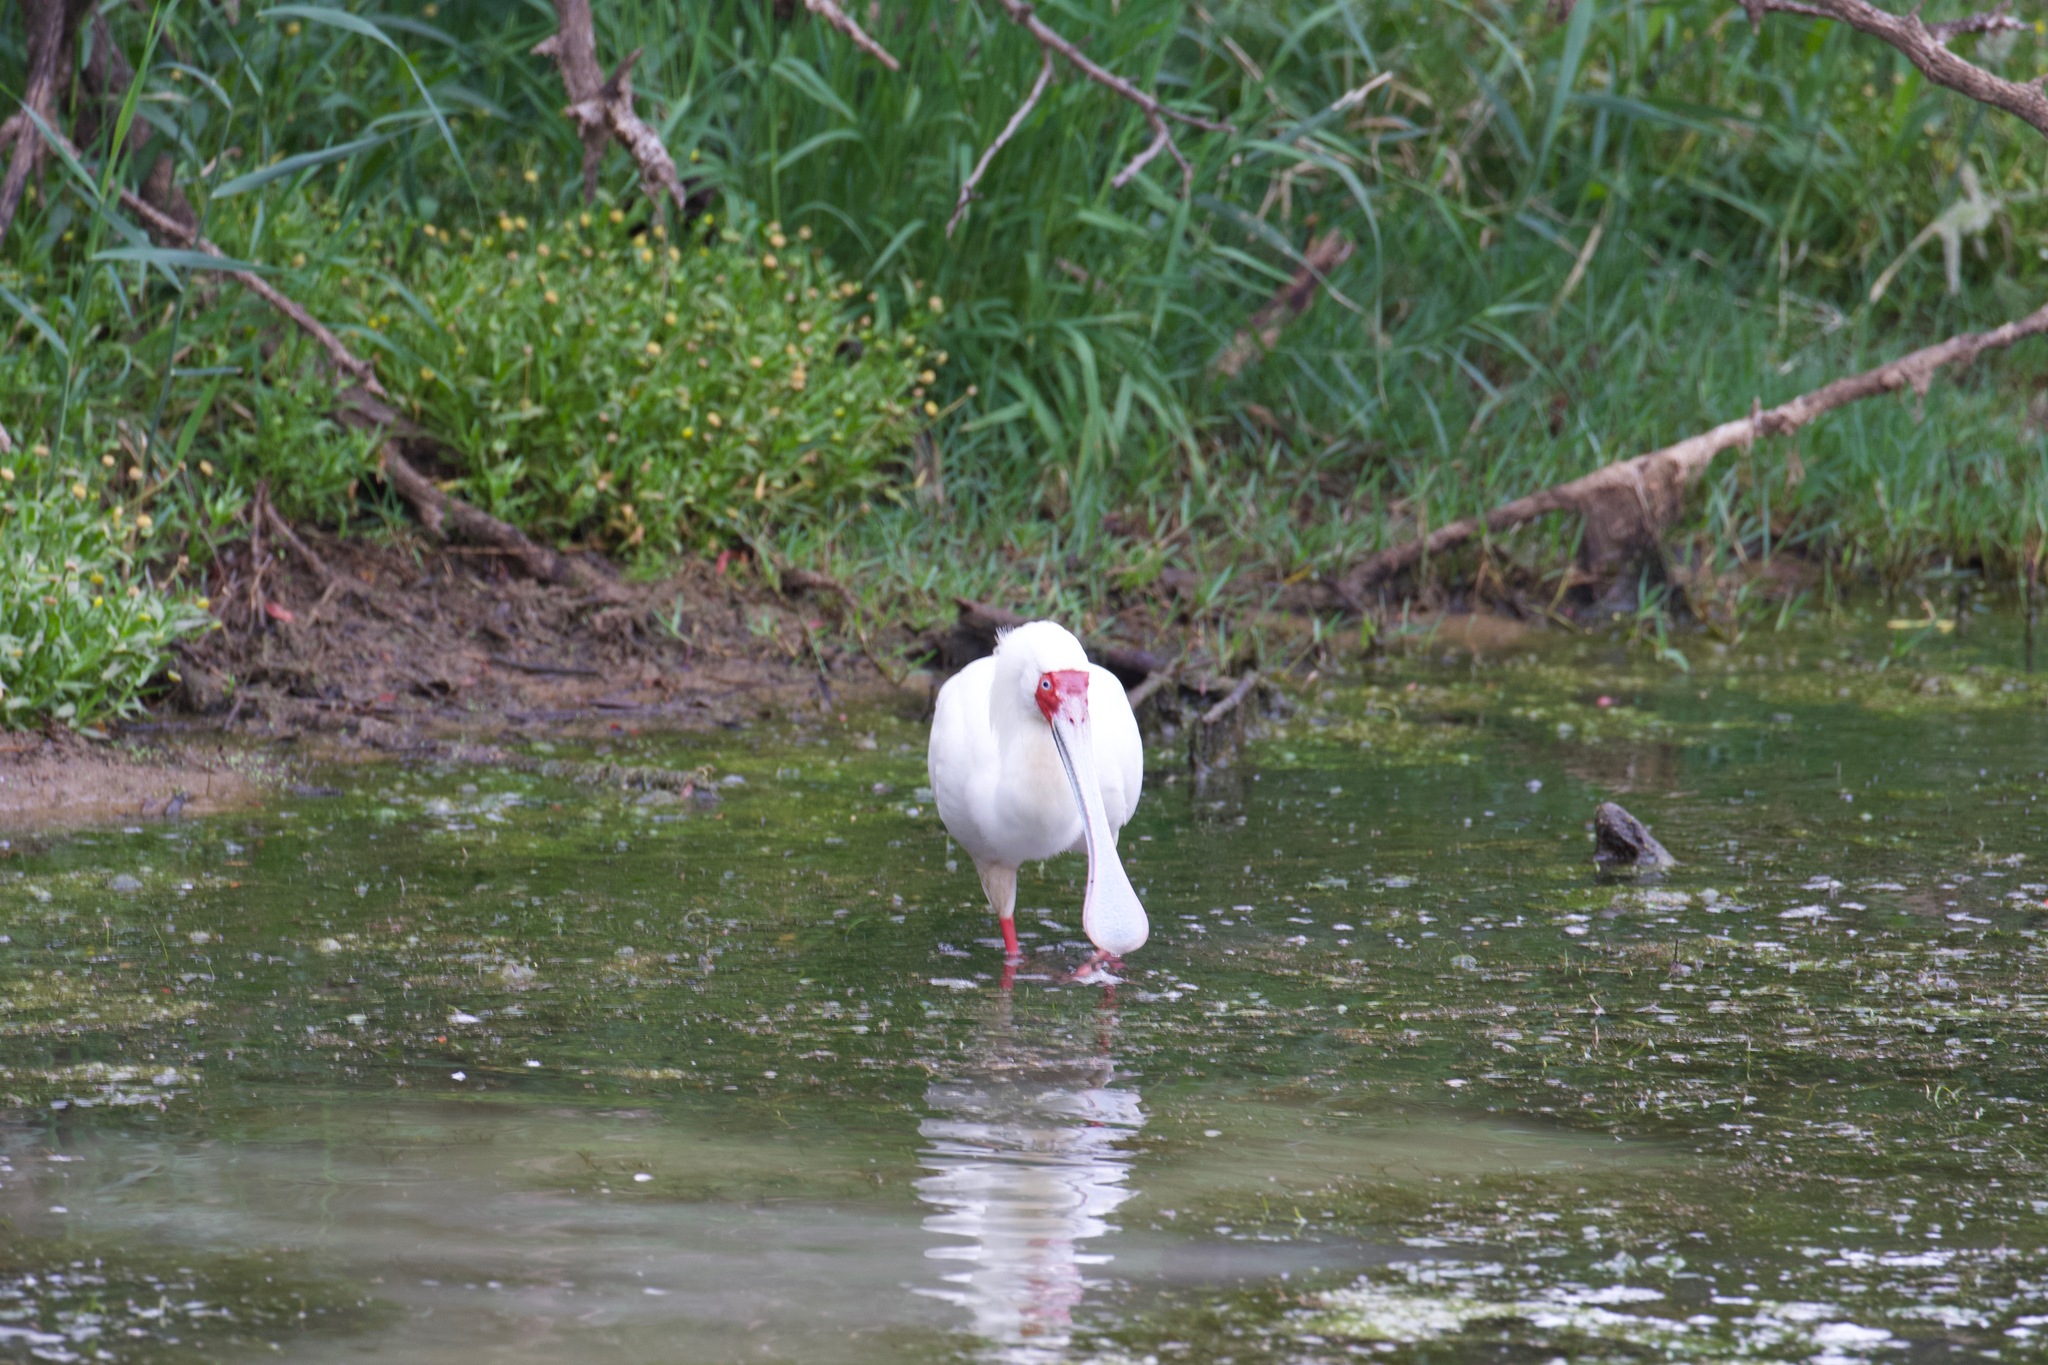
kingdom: Animalia
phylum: Chordata
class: Aves
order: Pelecaniformes
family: Threskiornithidae
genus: Platalea
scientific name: Platalea alba
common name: African spoonbill
